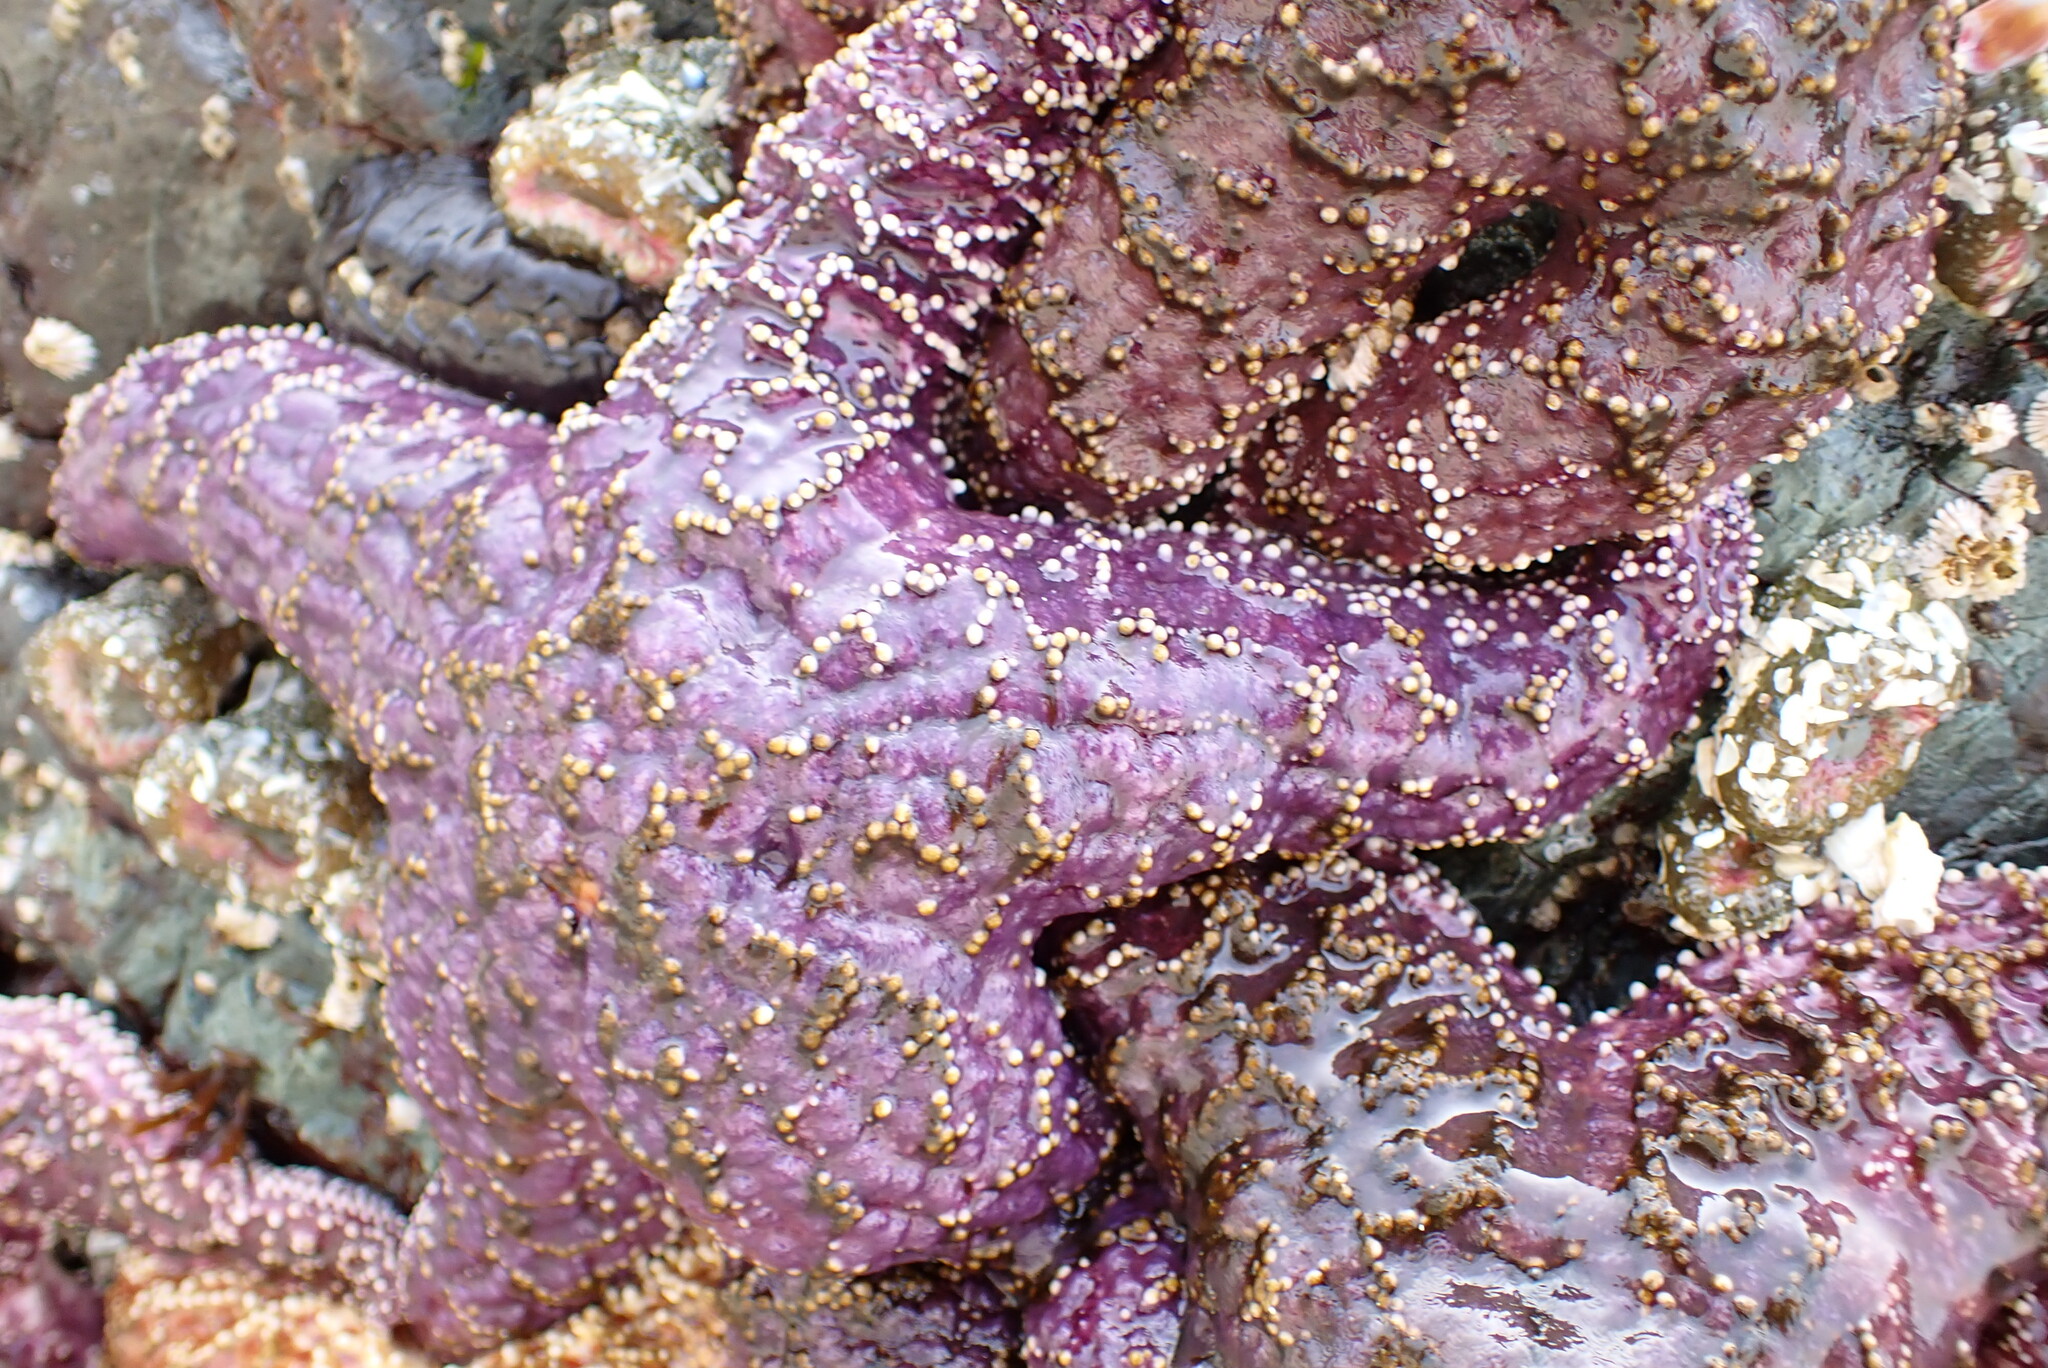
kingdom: Animalia
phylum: Echinodermata
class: Asteroidea
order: Forcipulatida
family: Asteriidae
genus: Pisaster
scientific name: Pisaster ochraceus
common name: Ochre stars
